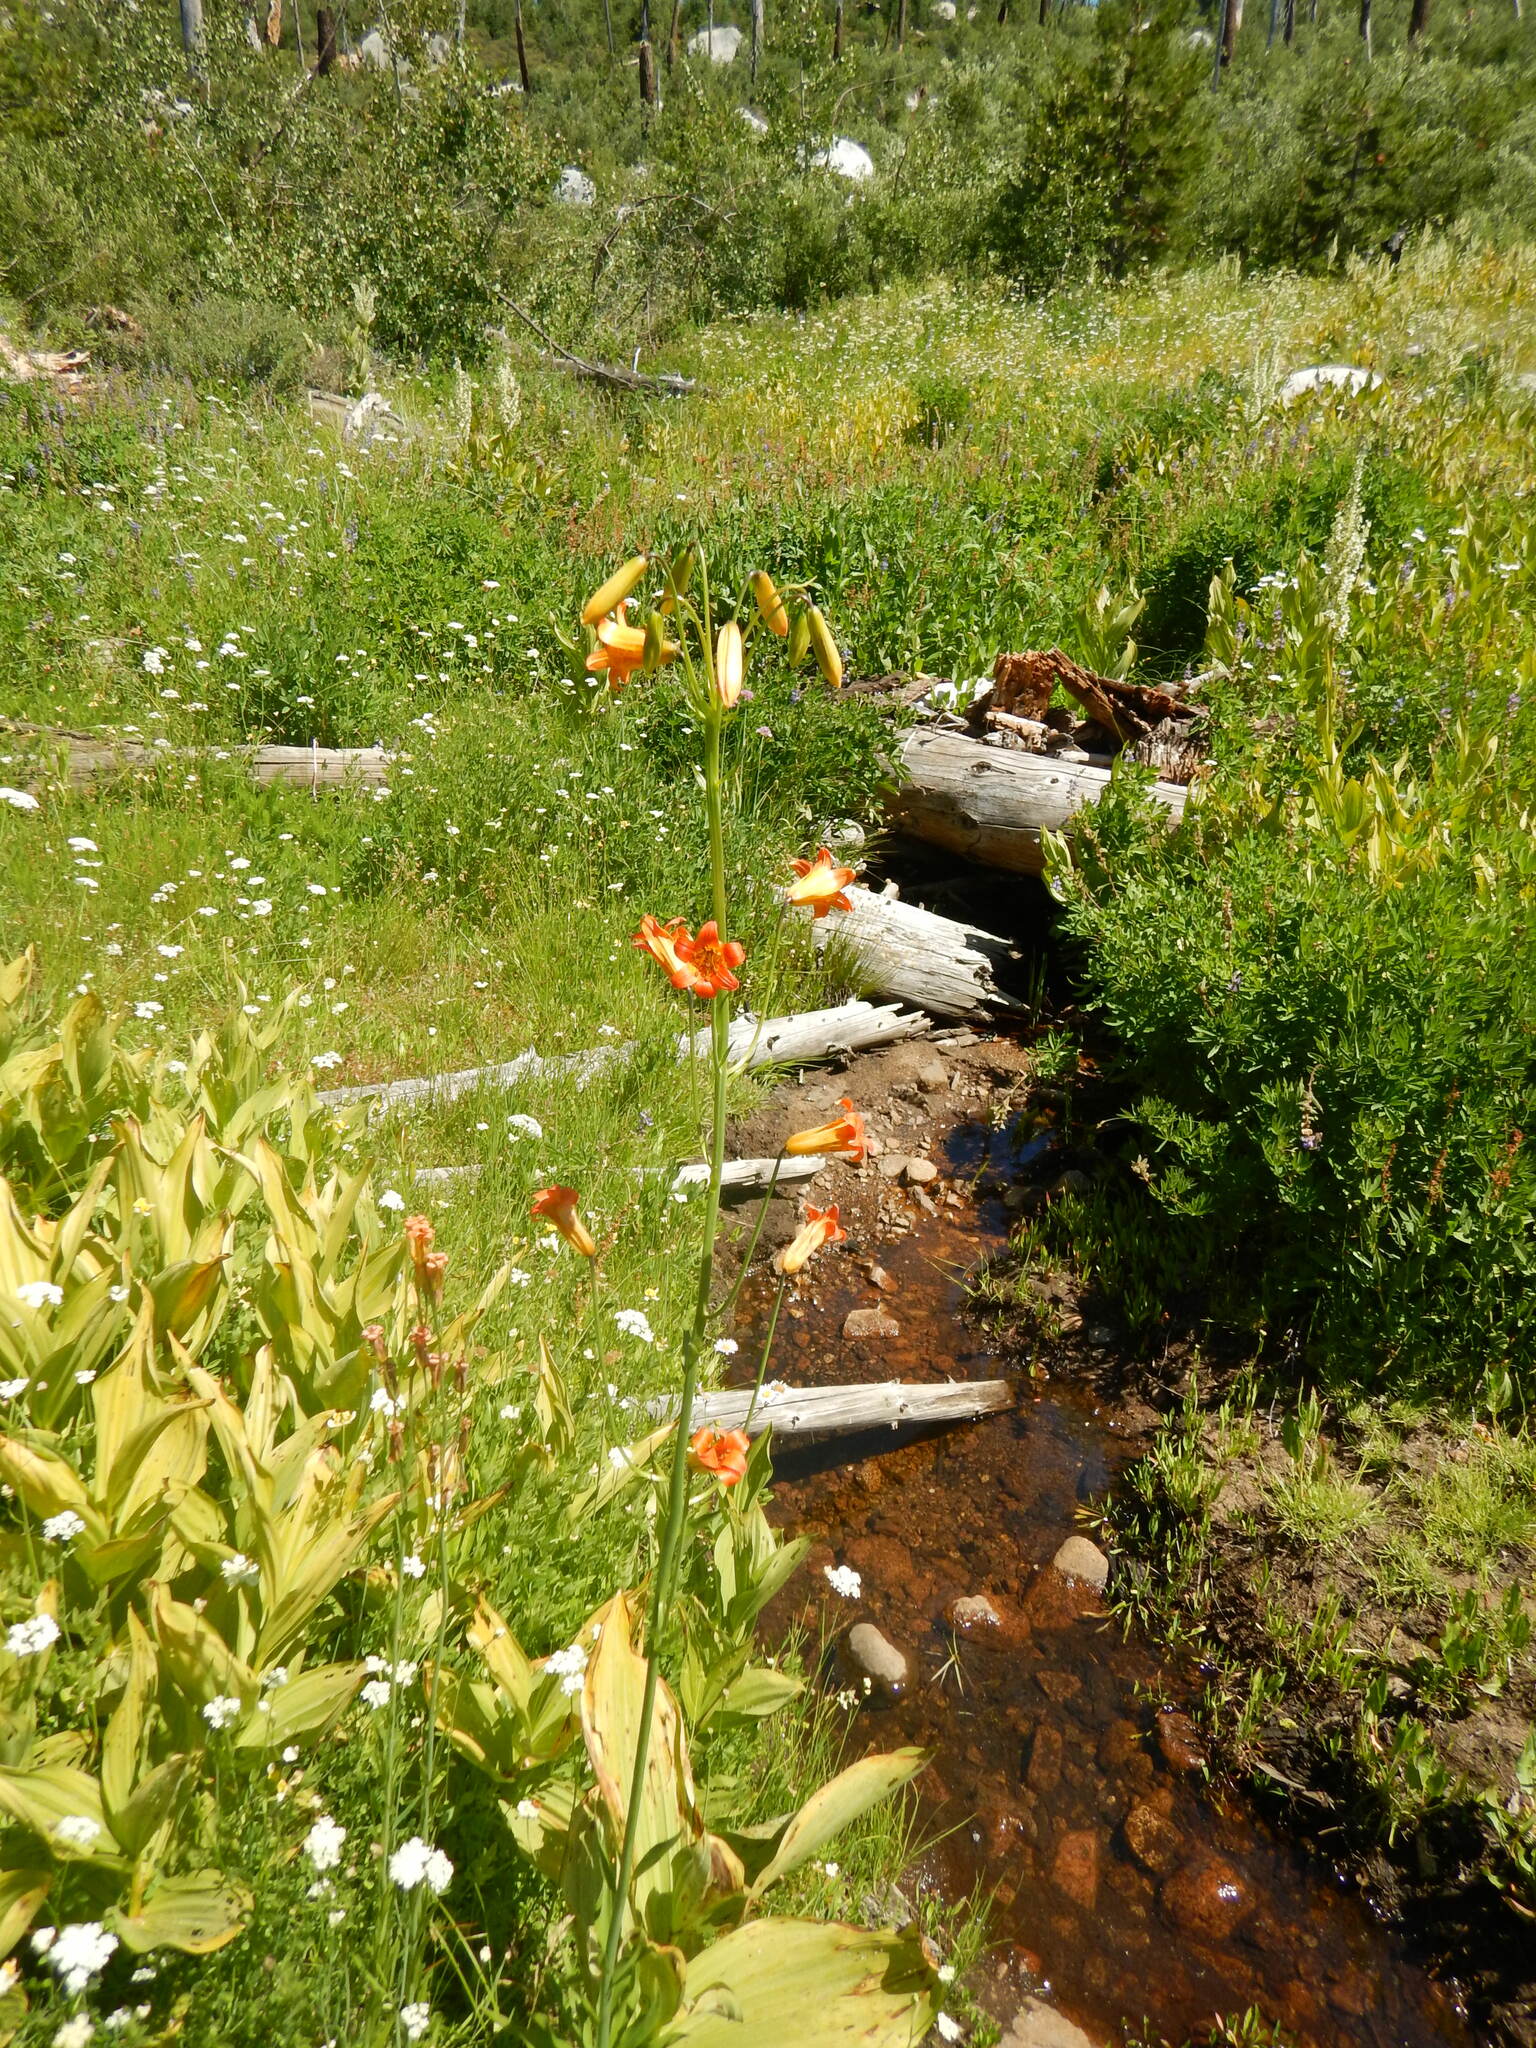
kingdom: Plantae
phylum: Tracheophyta
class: Liliopsida
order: Liliales
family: Liliaceae
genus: Lilium
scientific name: Lilium parvum
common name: Alpine lily
